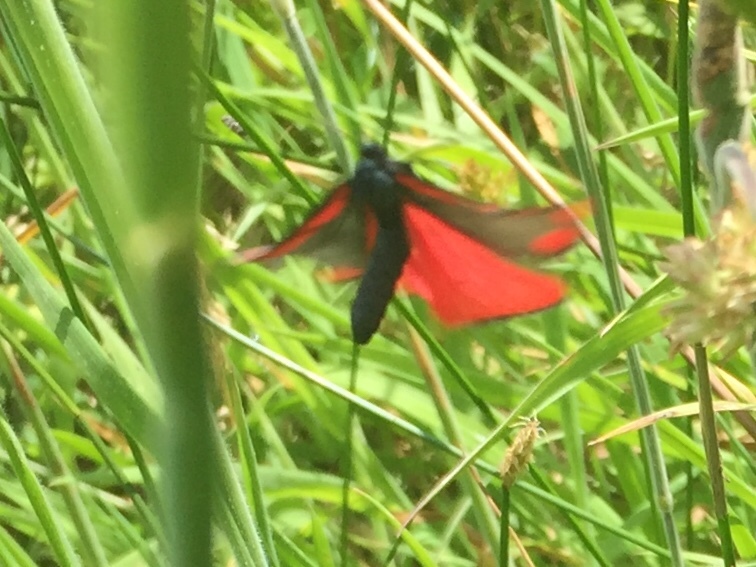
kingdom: Animalia
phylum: Arthropoda
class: Insecta
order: Lepidoptera
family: Erebidae
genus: Tyria
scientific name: Tyria jacobaeae
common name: Cinnabar
